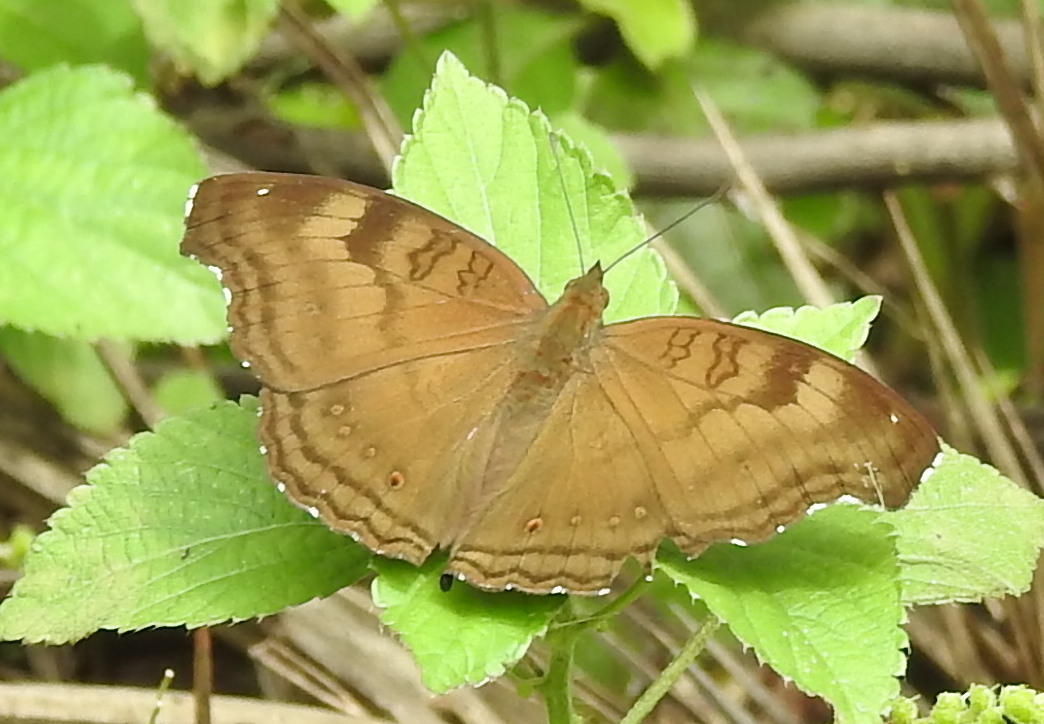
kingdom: Animalia
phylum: Arthropoda
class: Insecta
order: Lepidoptera
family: Nymphalidae
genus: Junonia
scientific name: Junonia iphita
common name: Chocolate pansy
